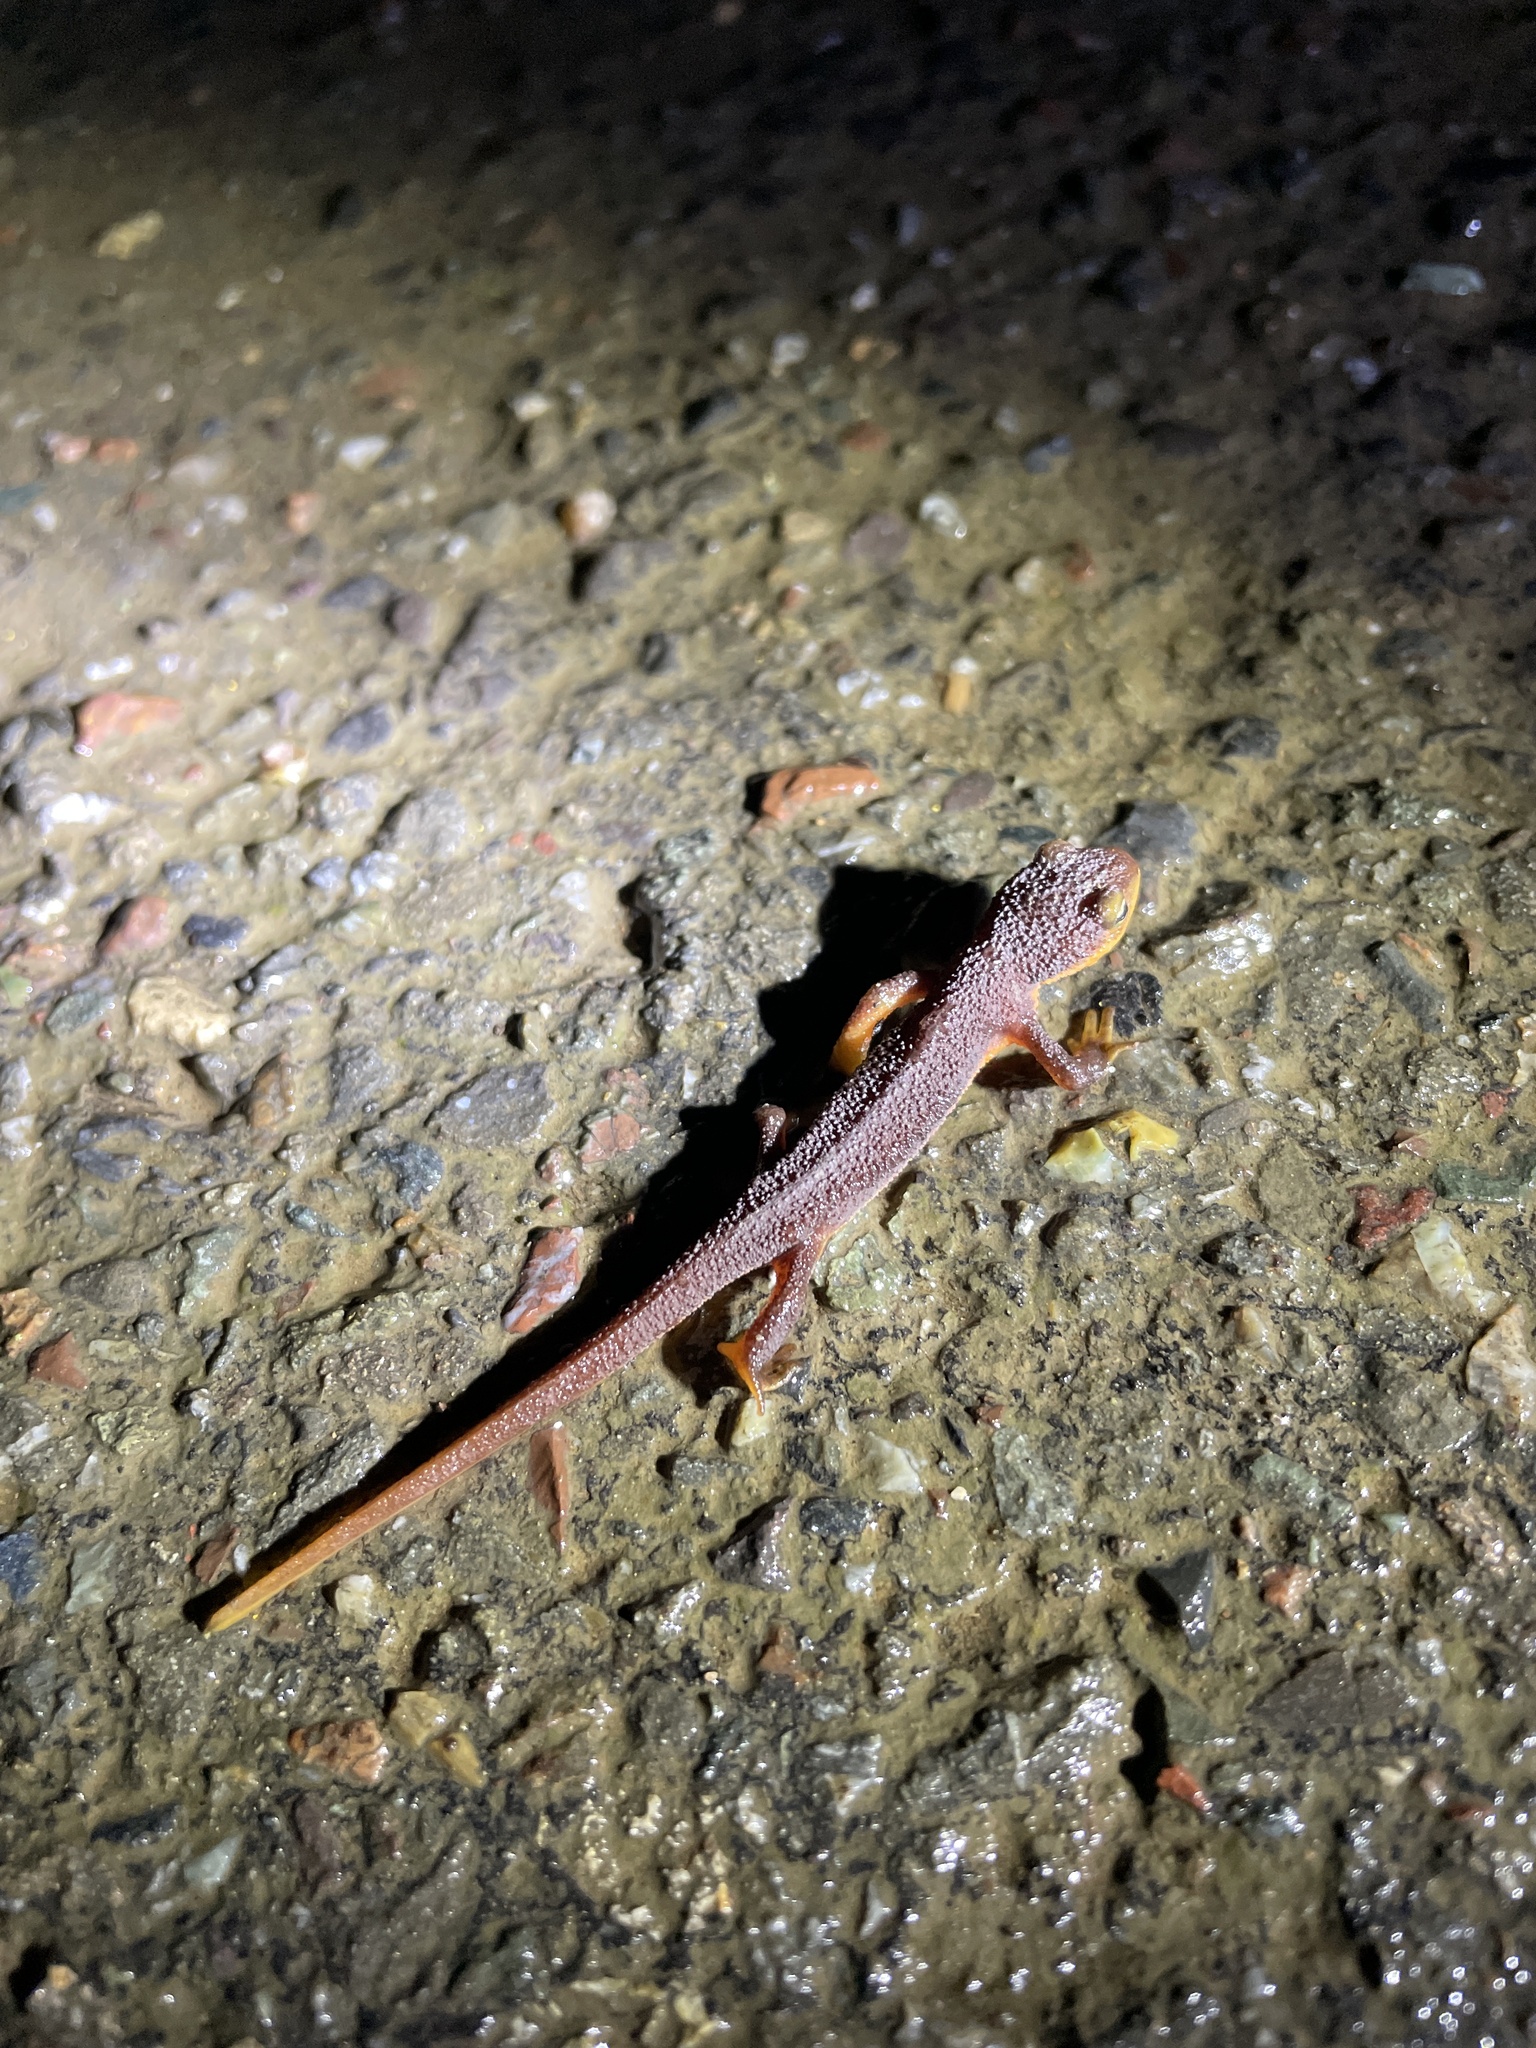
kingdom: Animalia
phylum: Chordata
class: Amphibia
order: Caudata
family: Salamandridae
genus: Taricha
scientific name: Taricha torosa
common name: California newt
